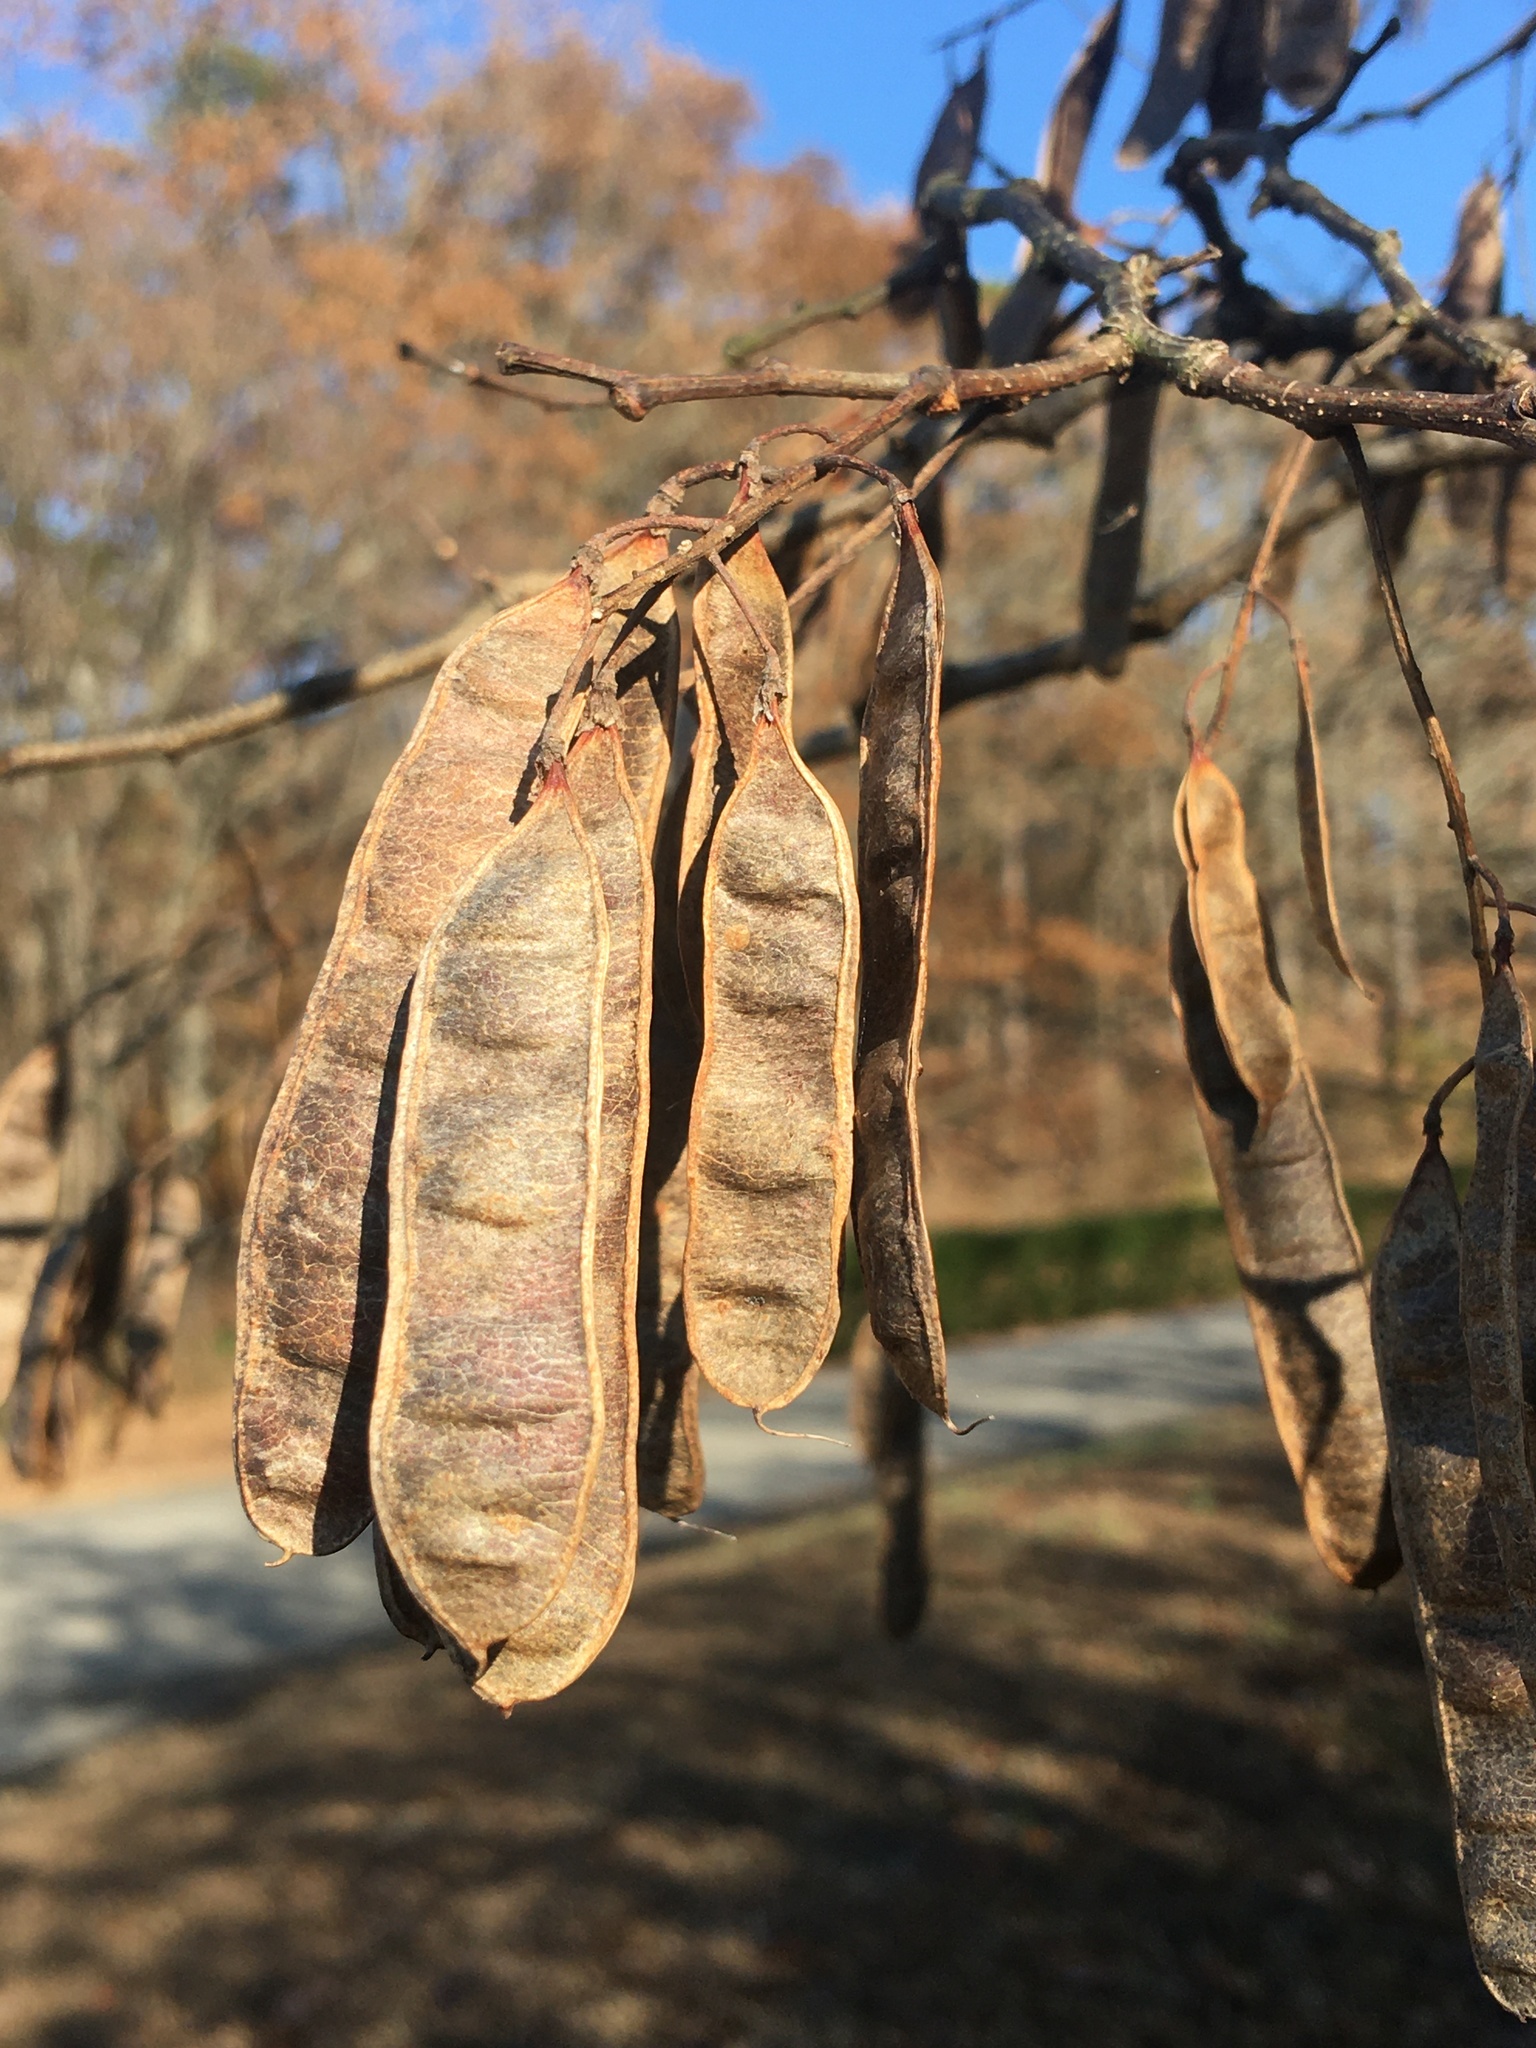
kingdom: Plantae
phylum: Tracheophyta
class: Magnoliopsida
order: Fabales
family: Fabaceae
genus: Robinia
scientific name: Robinia pseudoacacia
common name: Black locust
